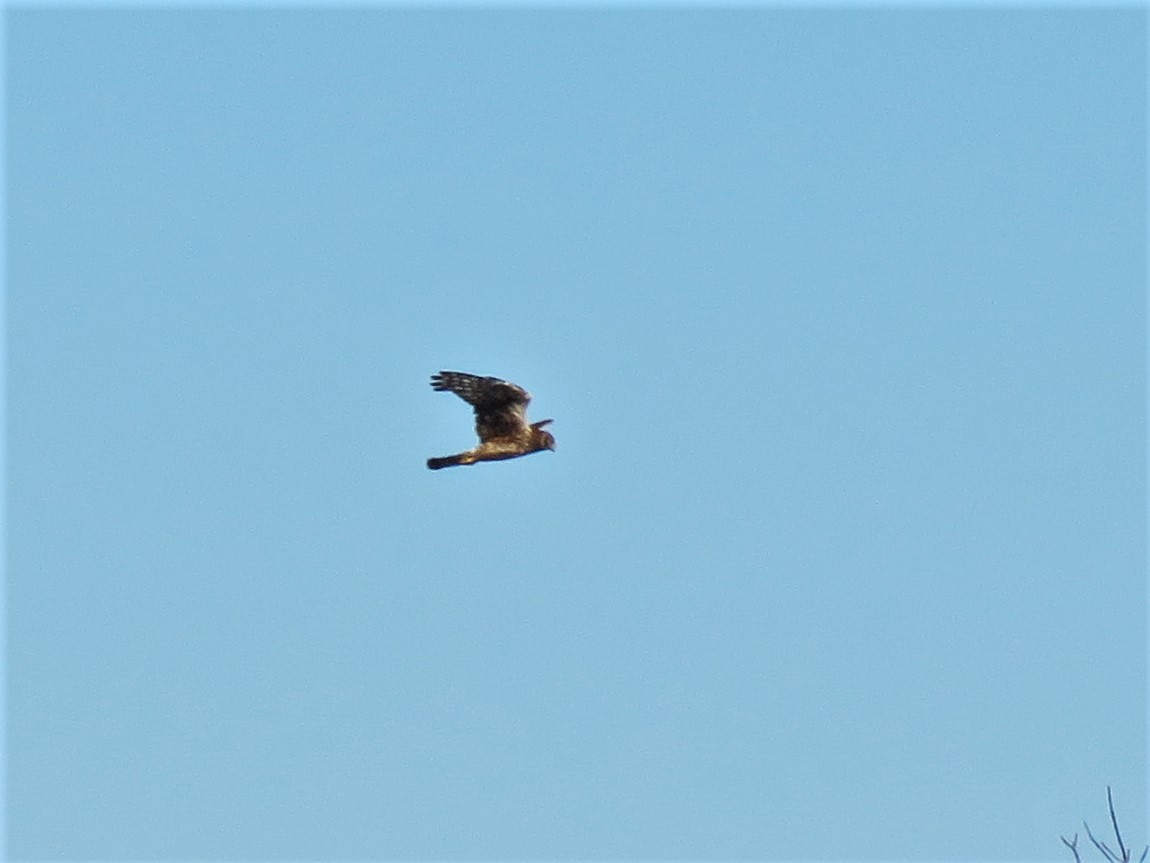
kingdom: Animalia
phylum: Chordata
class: Aves
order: Accipitriformes
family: Accipitridae
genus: Circus
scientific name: Circus cyaneus
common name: Hen harrier
